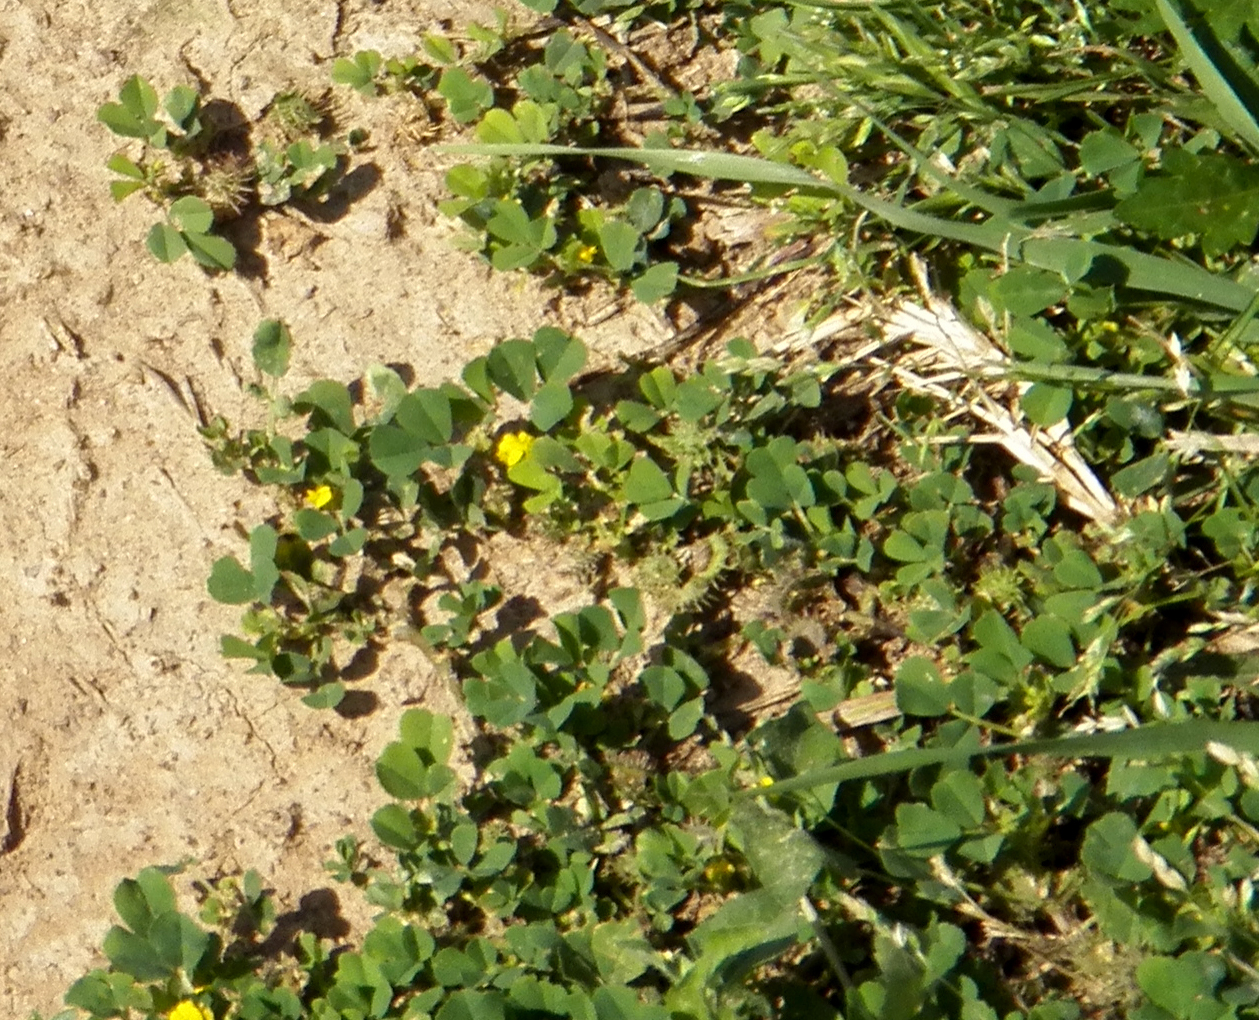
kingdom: Plantae
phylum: Tracheophyta
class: Magnoliopsida
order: Fabales
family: Fabaceae
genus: Medicago
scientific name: Medicago polymorpha
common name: Burclover
